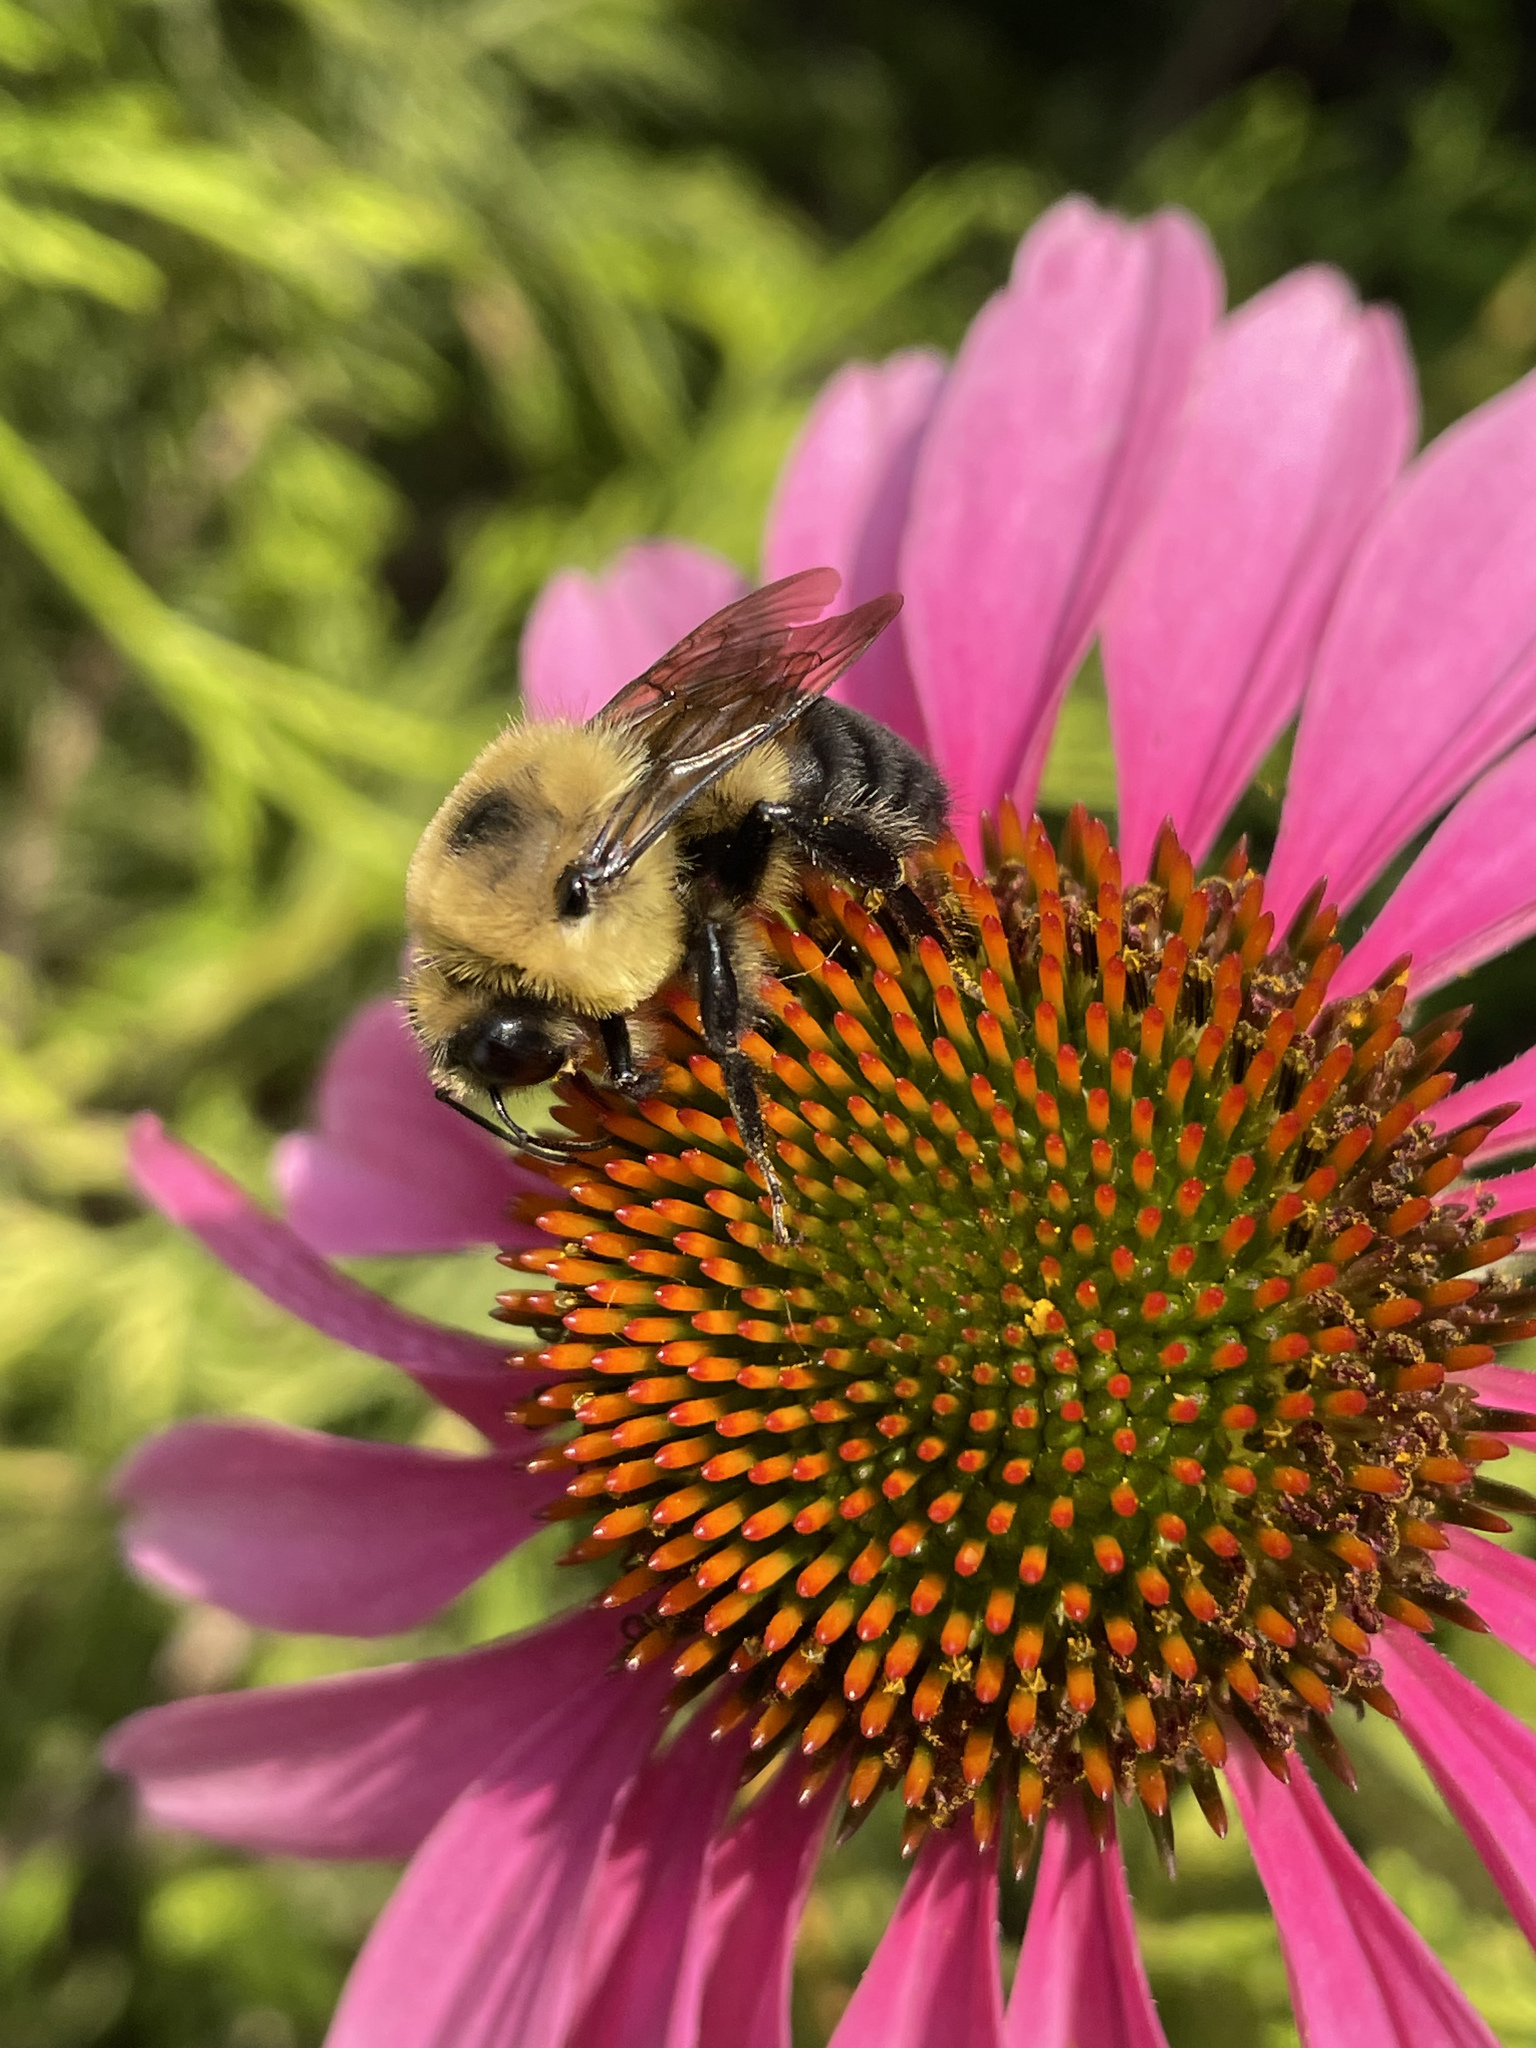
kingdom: Animalia
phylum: Arthropoda
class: Insecta
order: Hymenoptera
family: Apidae
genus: Bombus
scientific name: Bombus griseocollis
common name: Brown-belted bumble bee
